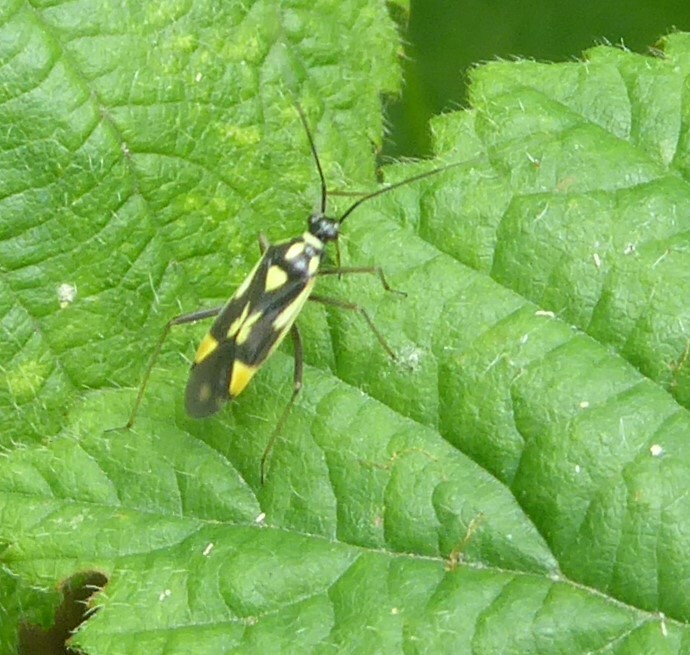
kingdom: Animalia
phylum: Arthropoda
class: Insecta
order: Hemiptera
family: Miridae
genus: Grypocoris
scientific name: Grypocoris stysi
